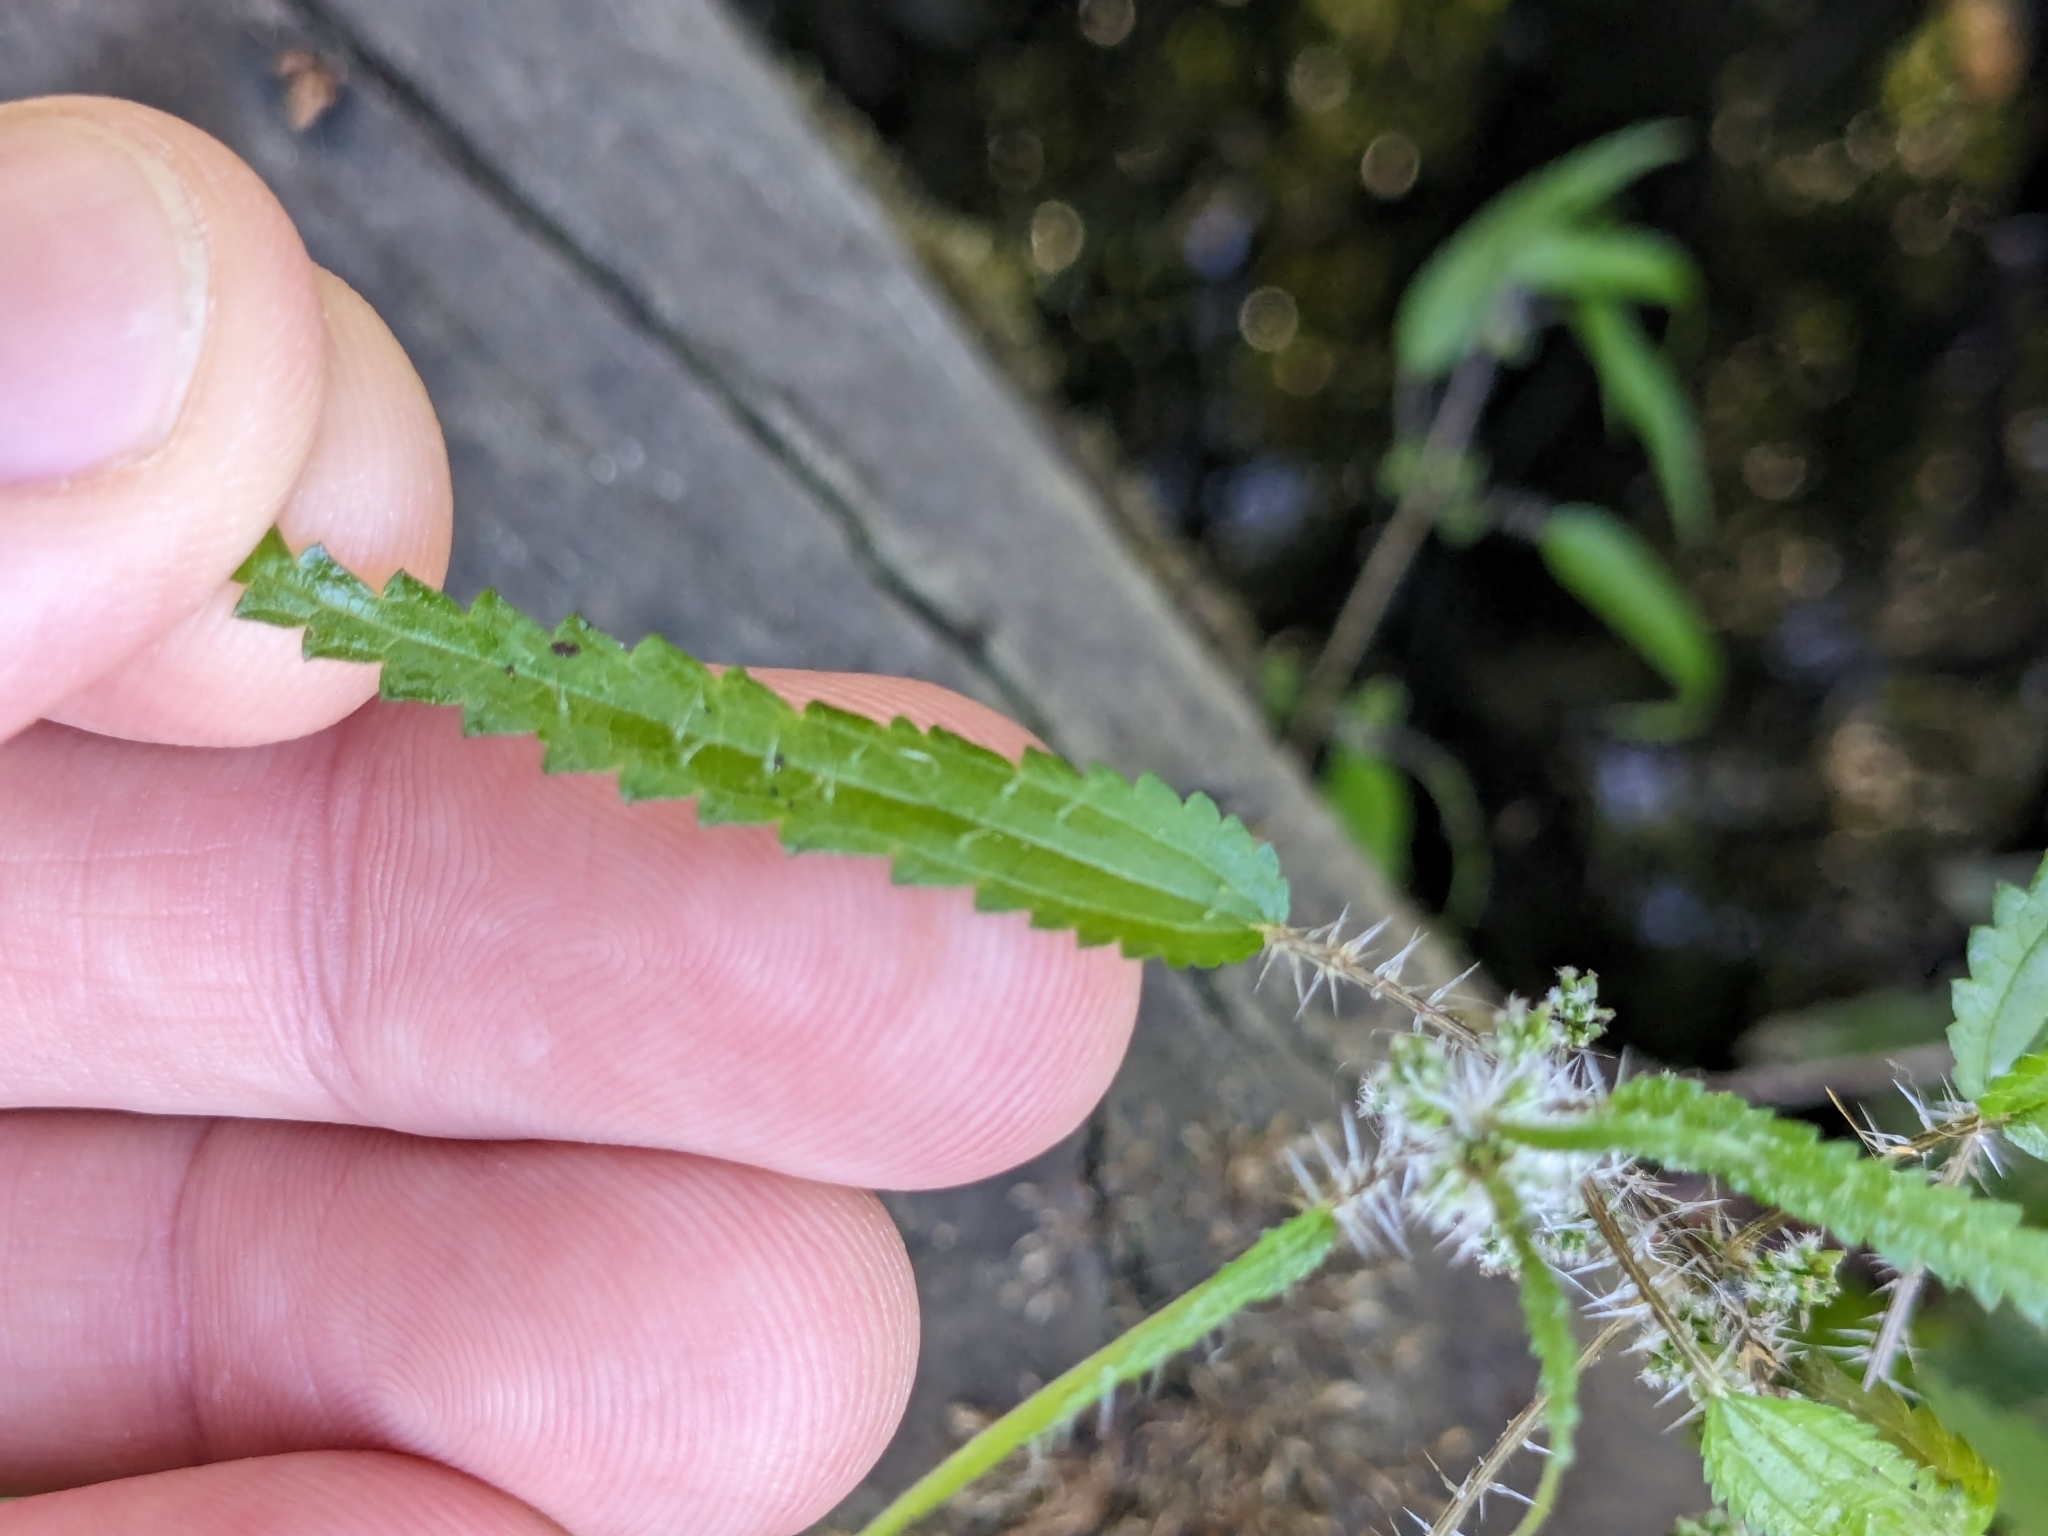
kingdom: Plantae
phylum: Tracheophyta
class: Magnoliopsida
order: Rosales
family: Urticaceae
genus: Urtica
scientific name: Urtica perconfusa
